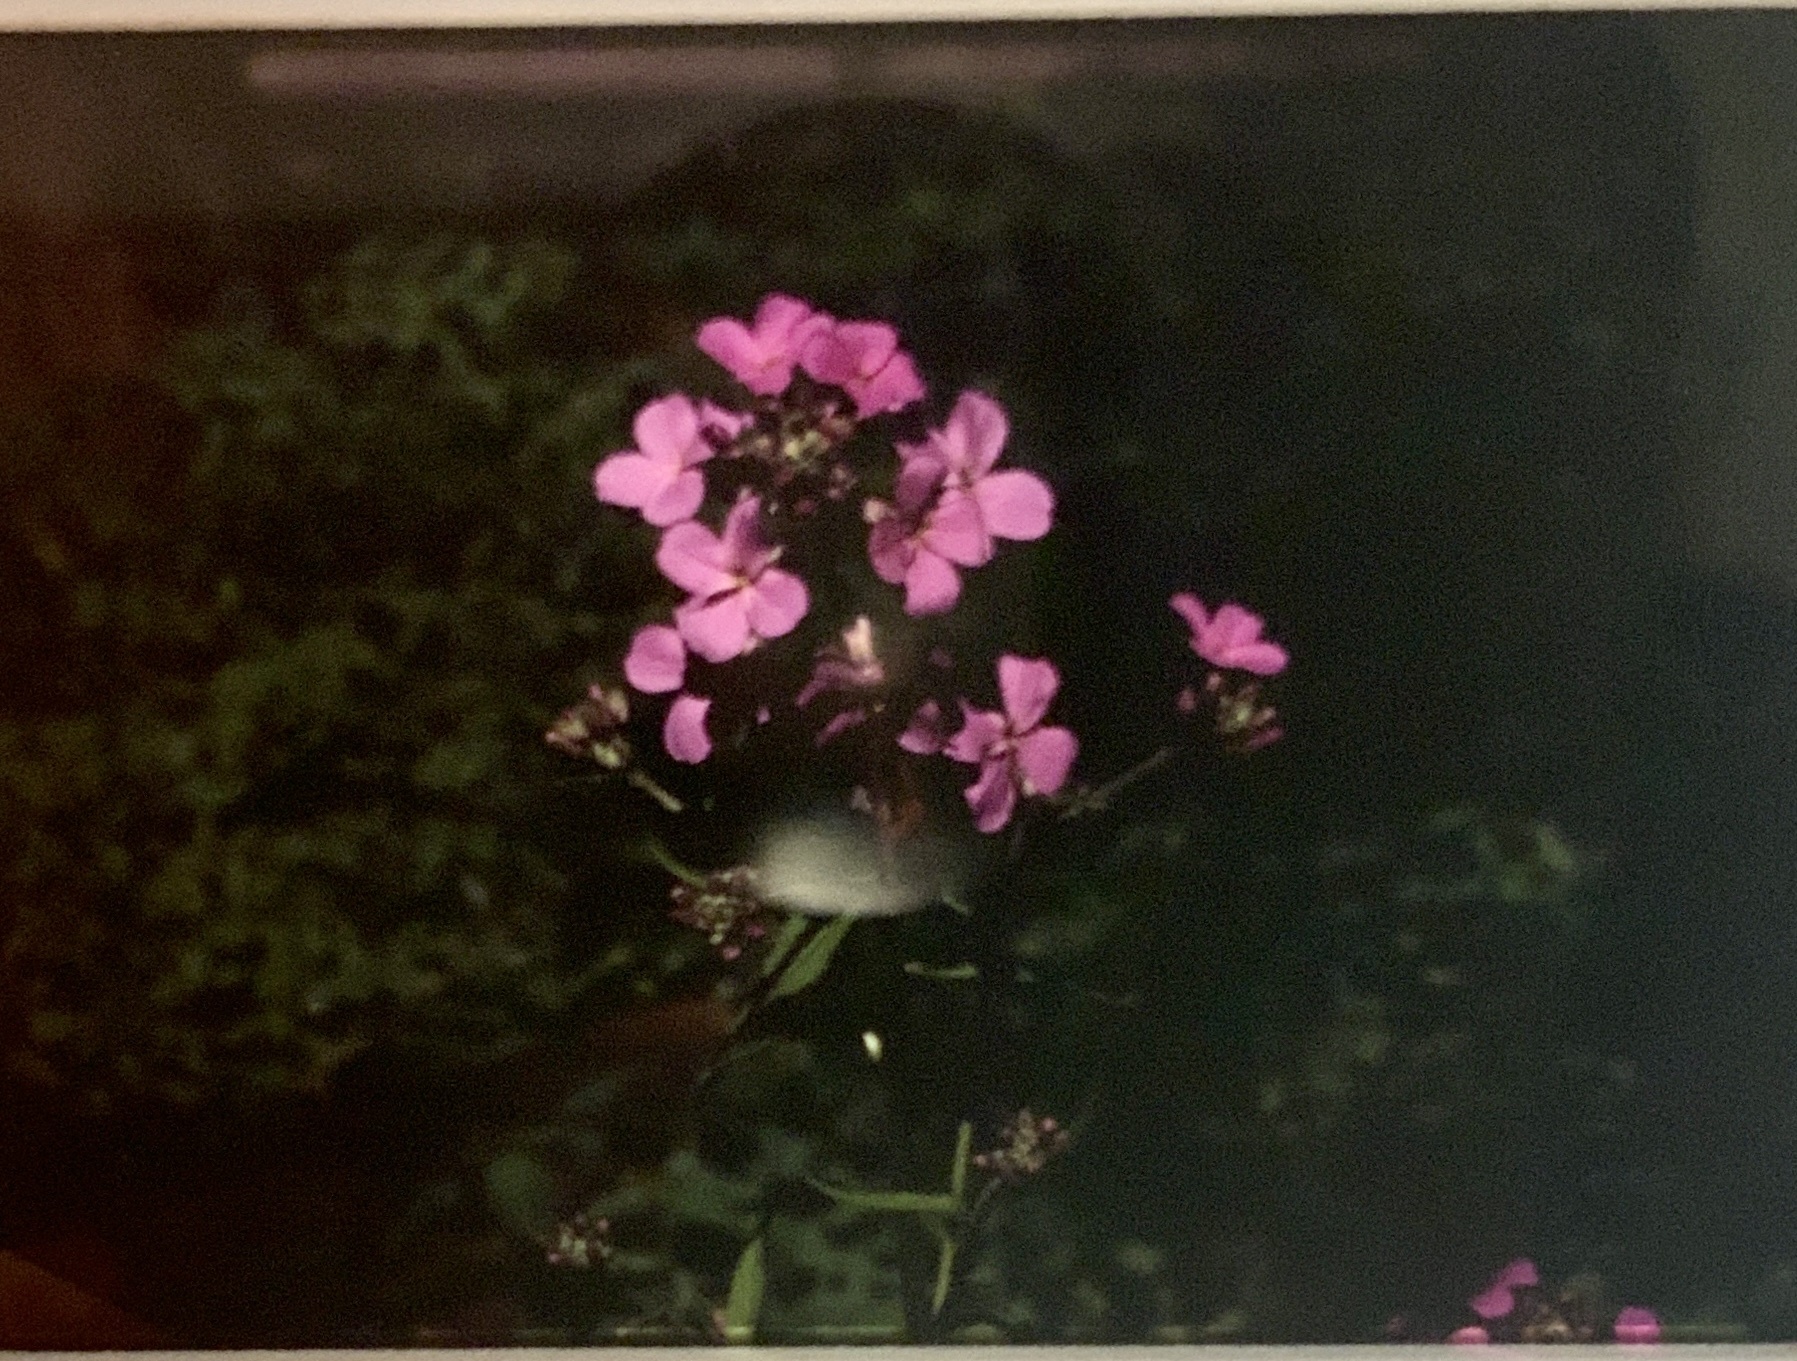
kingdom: Plantae
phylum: Tracheophyta
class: Magnoliopsida
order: Brassicales
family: Brassicaceae
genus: Hesperis
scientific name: Hesperis matronalis
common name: Dame's-violet
